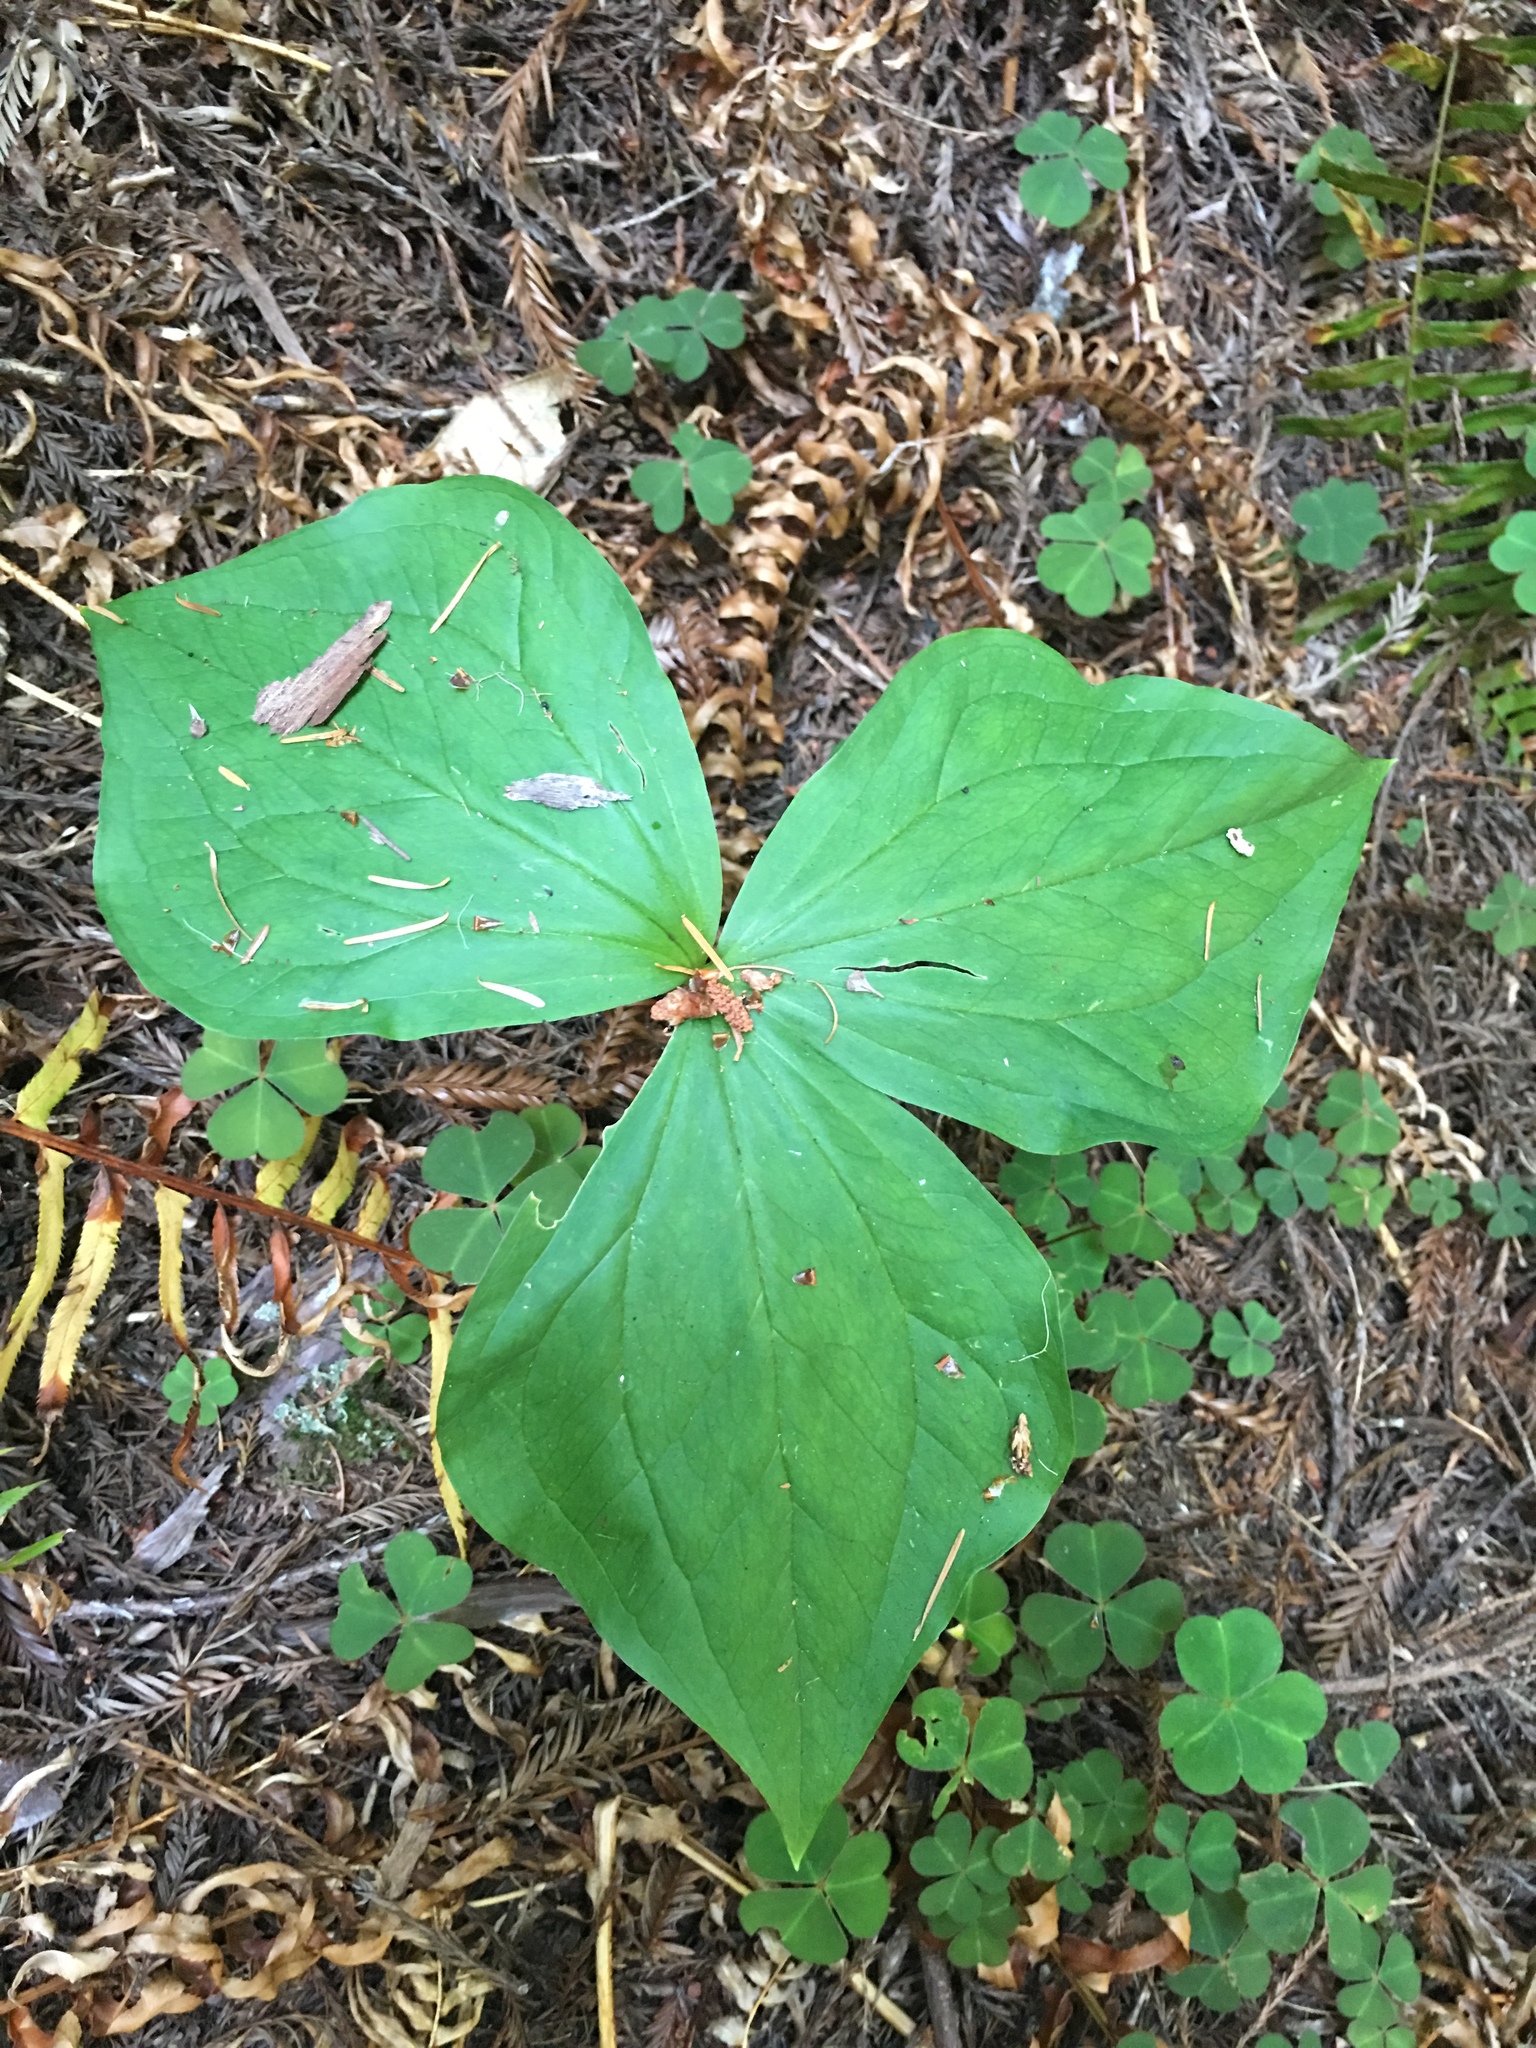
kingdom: Plantae
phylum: Tracheophyta
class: Liliopsida
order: Liliales
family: Melanthiaceae
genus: Trillium
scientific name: Trillium ovatum
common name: Pacific trillium
